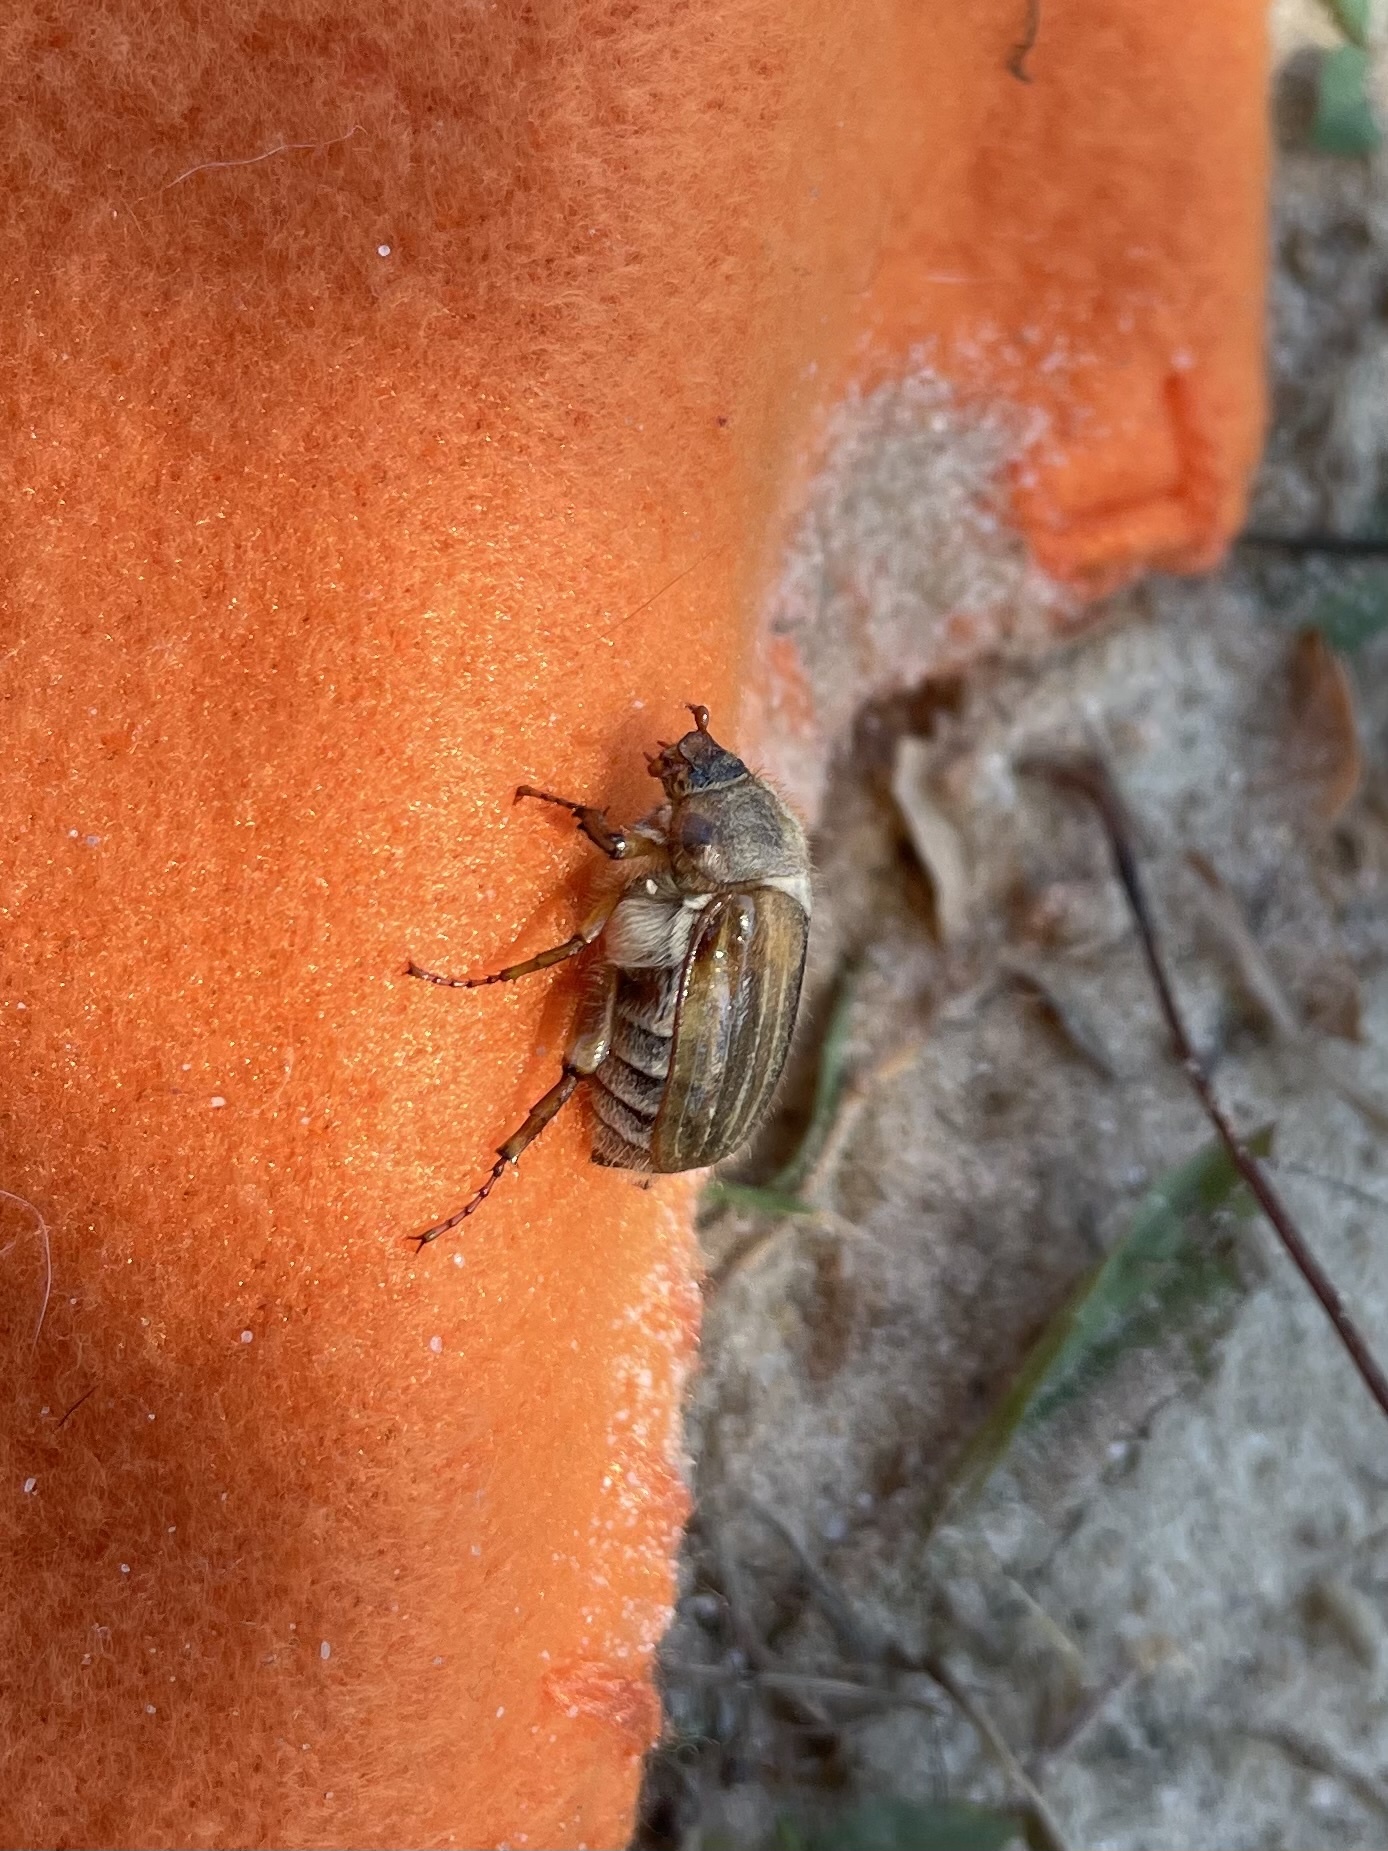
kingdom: Animalia
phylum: Arthropoda
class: Insecta
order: Coleoptera
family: Scarabaeidae
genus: Amphimallon
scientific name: Amphimallon solstitiale
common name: Summer chafer
